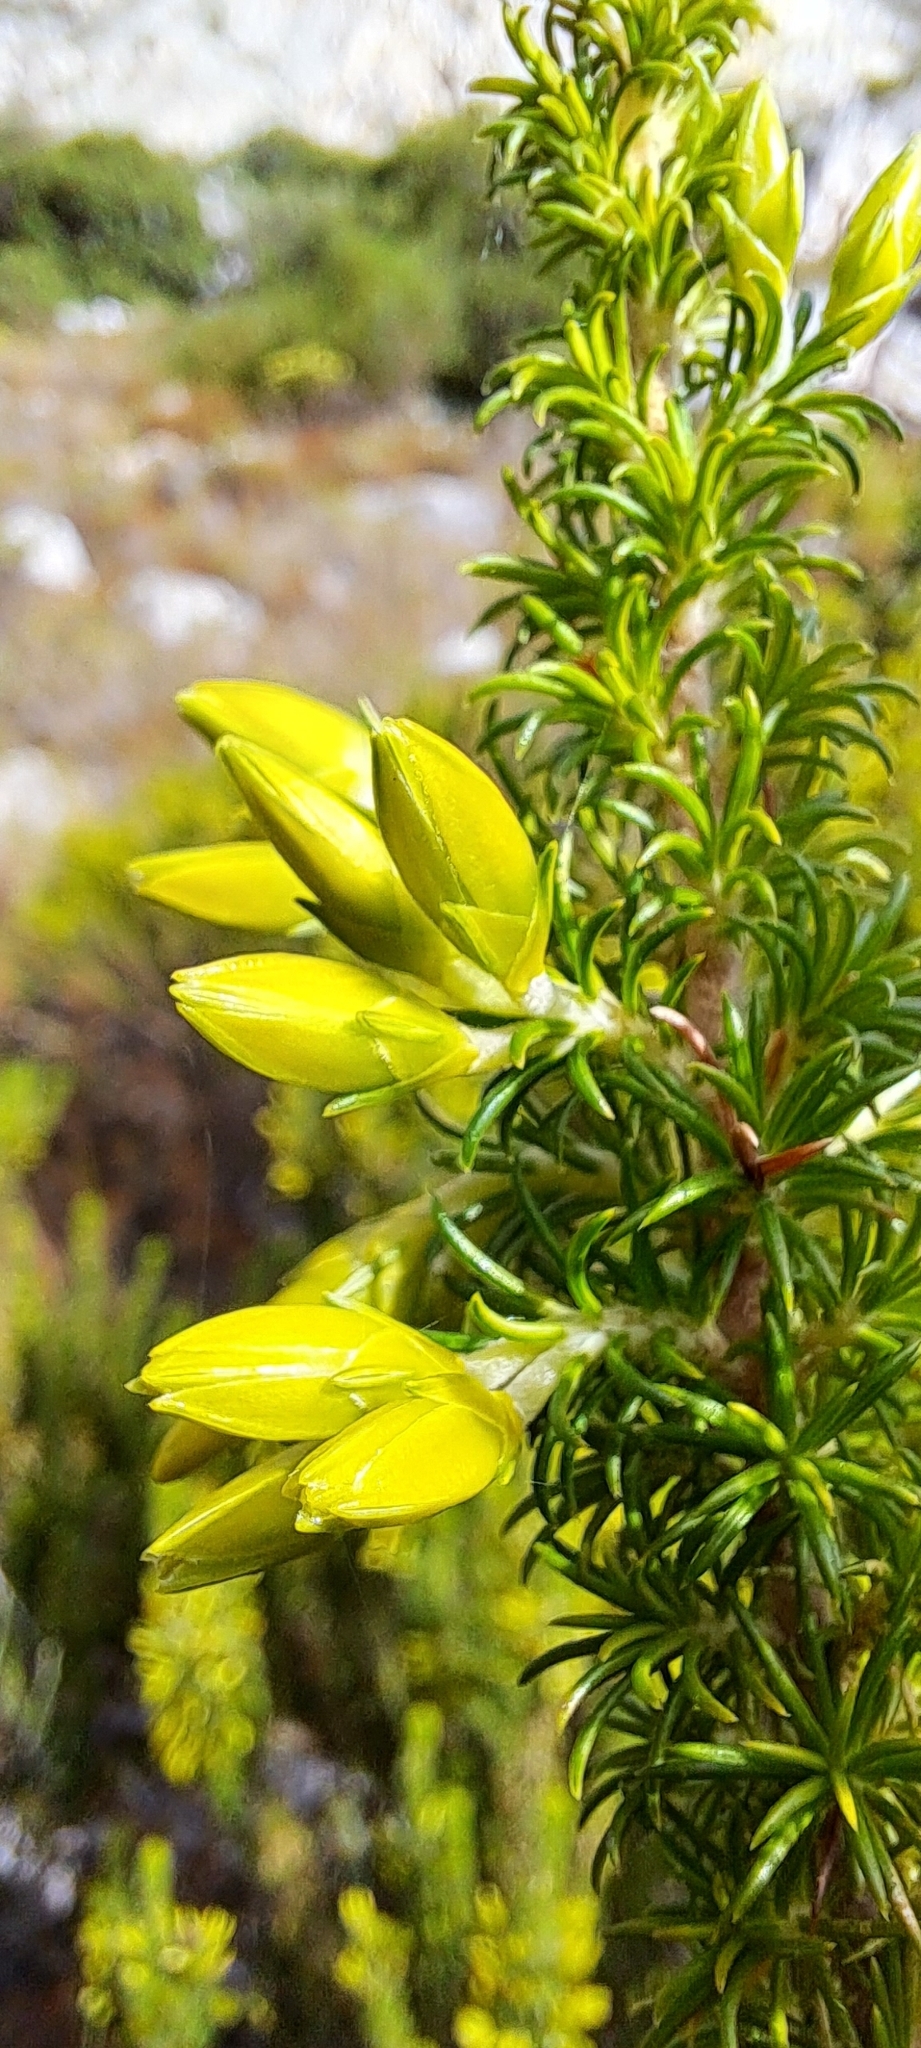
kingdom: Plantae
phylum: Tracheophyta
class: Magnoliopsida
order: Ericales
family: Ericaceae
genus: Erica
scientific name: Erica coccinea
